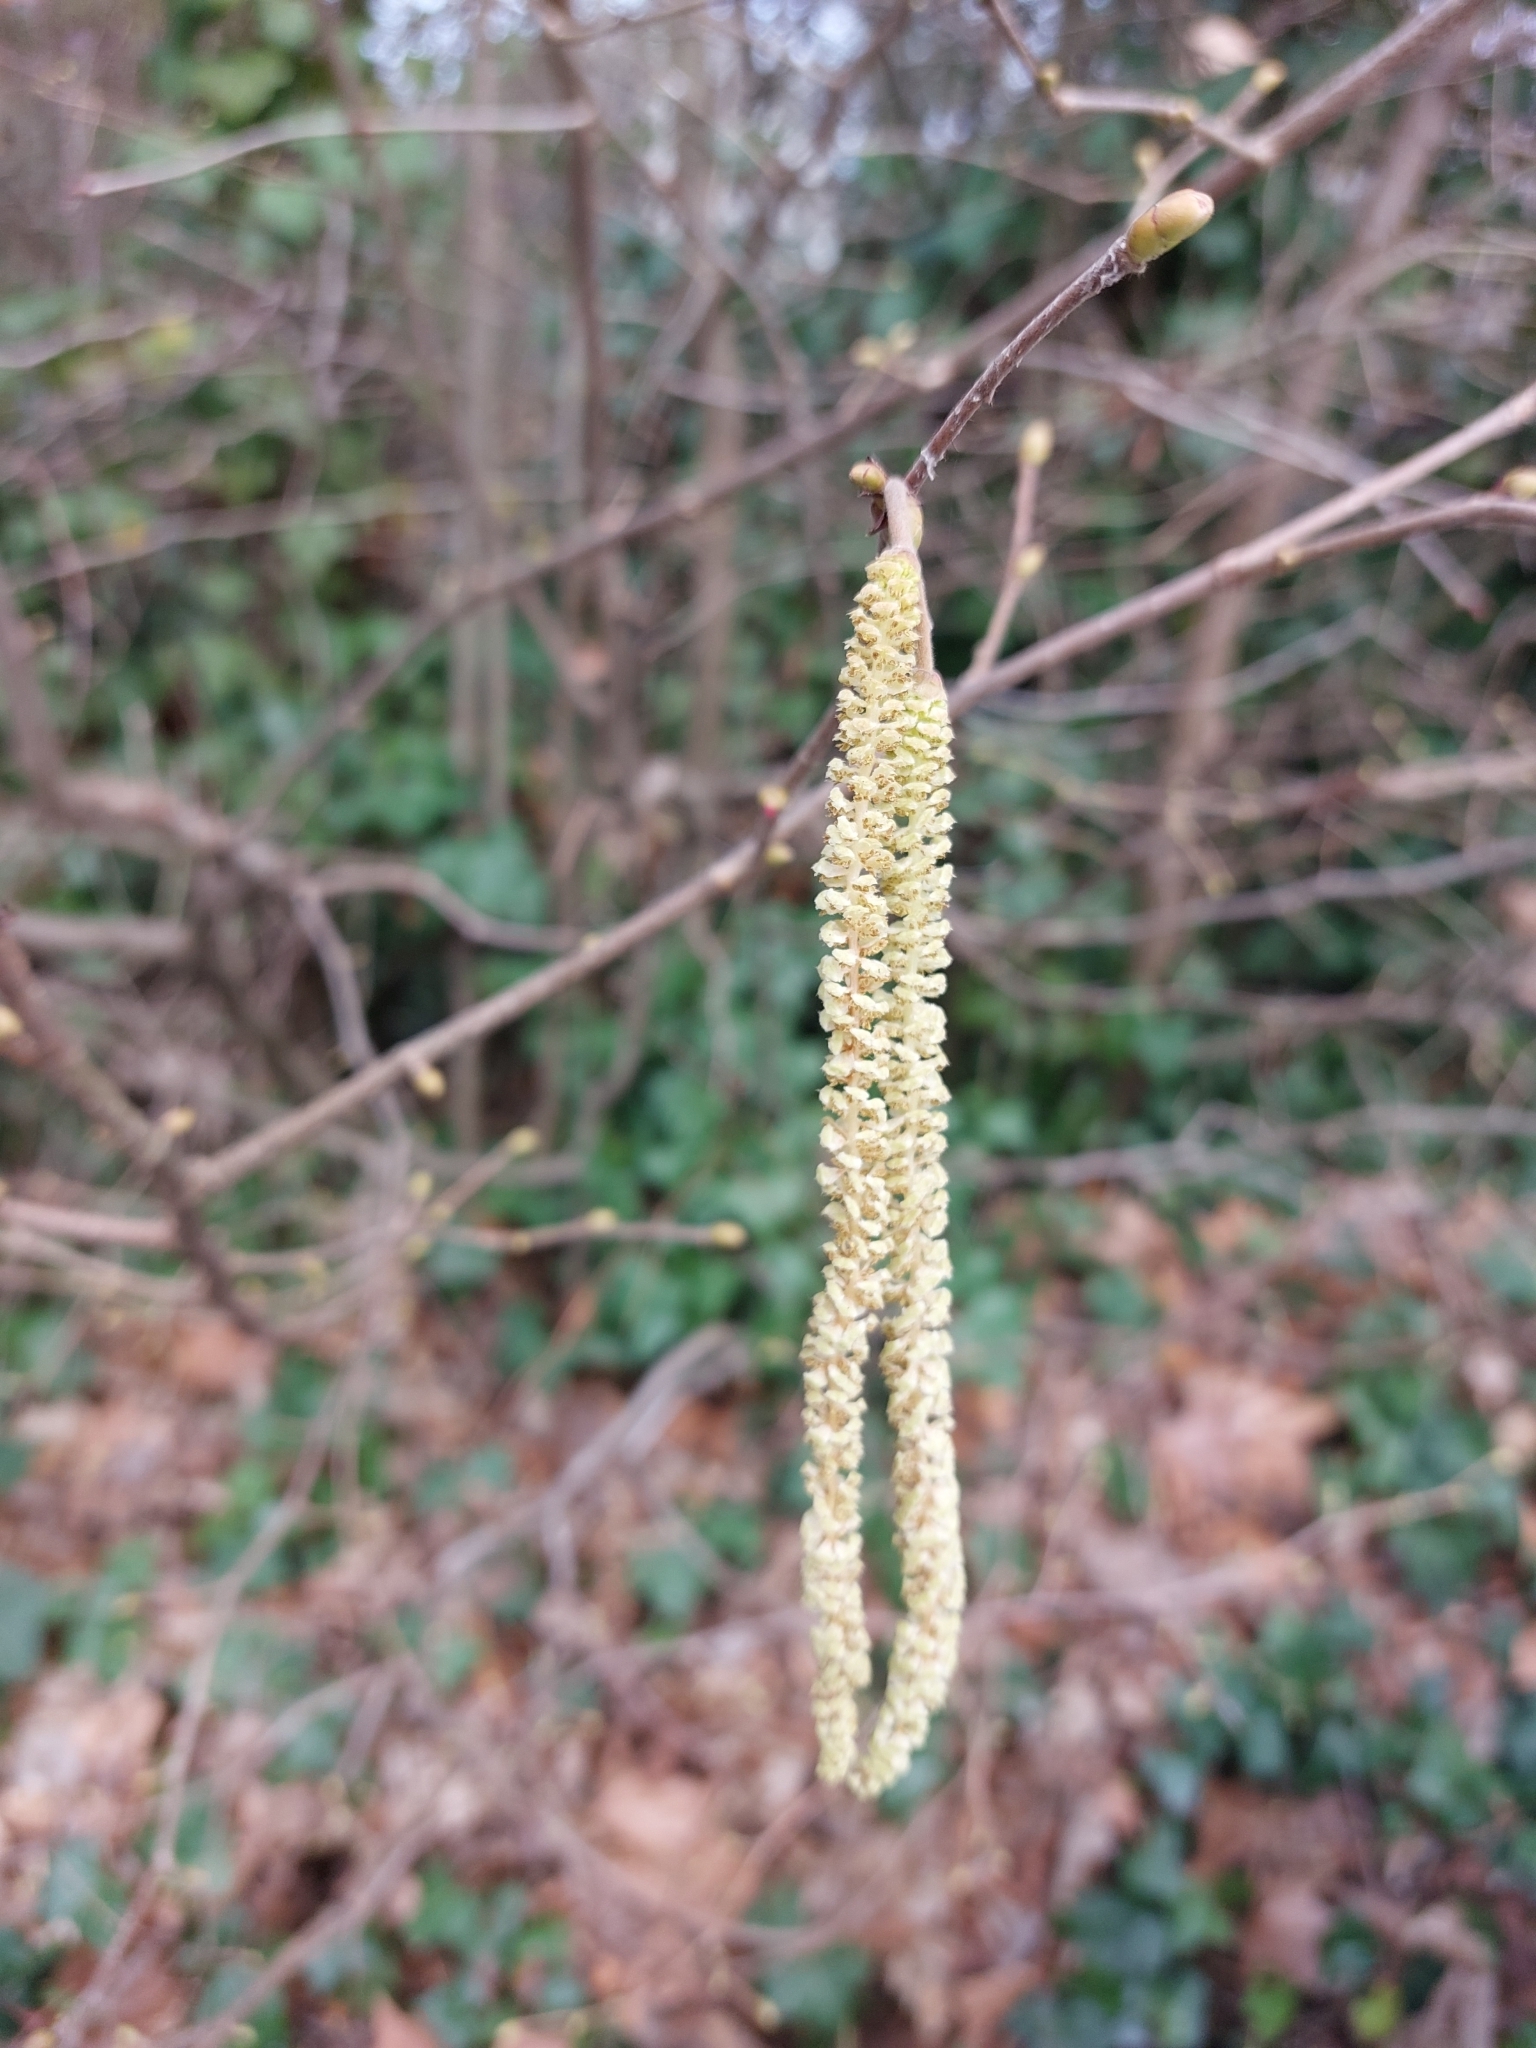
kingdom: Plantae
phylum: Tracheophyta
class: Magnoliopsida
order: Fagales
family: Betulaceae
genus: Corylus
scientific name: Corylus avellana
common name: European hazel
